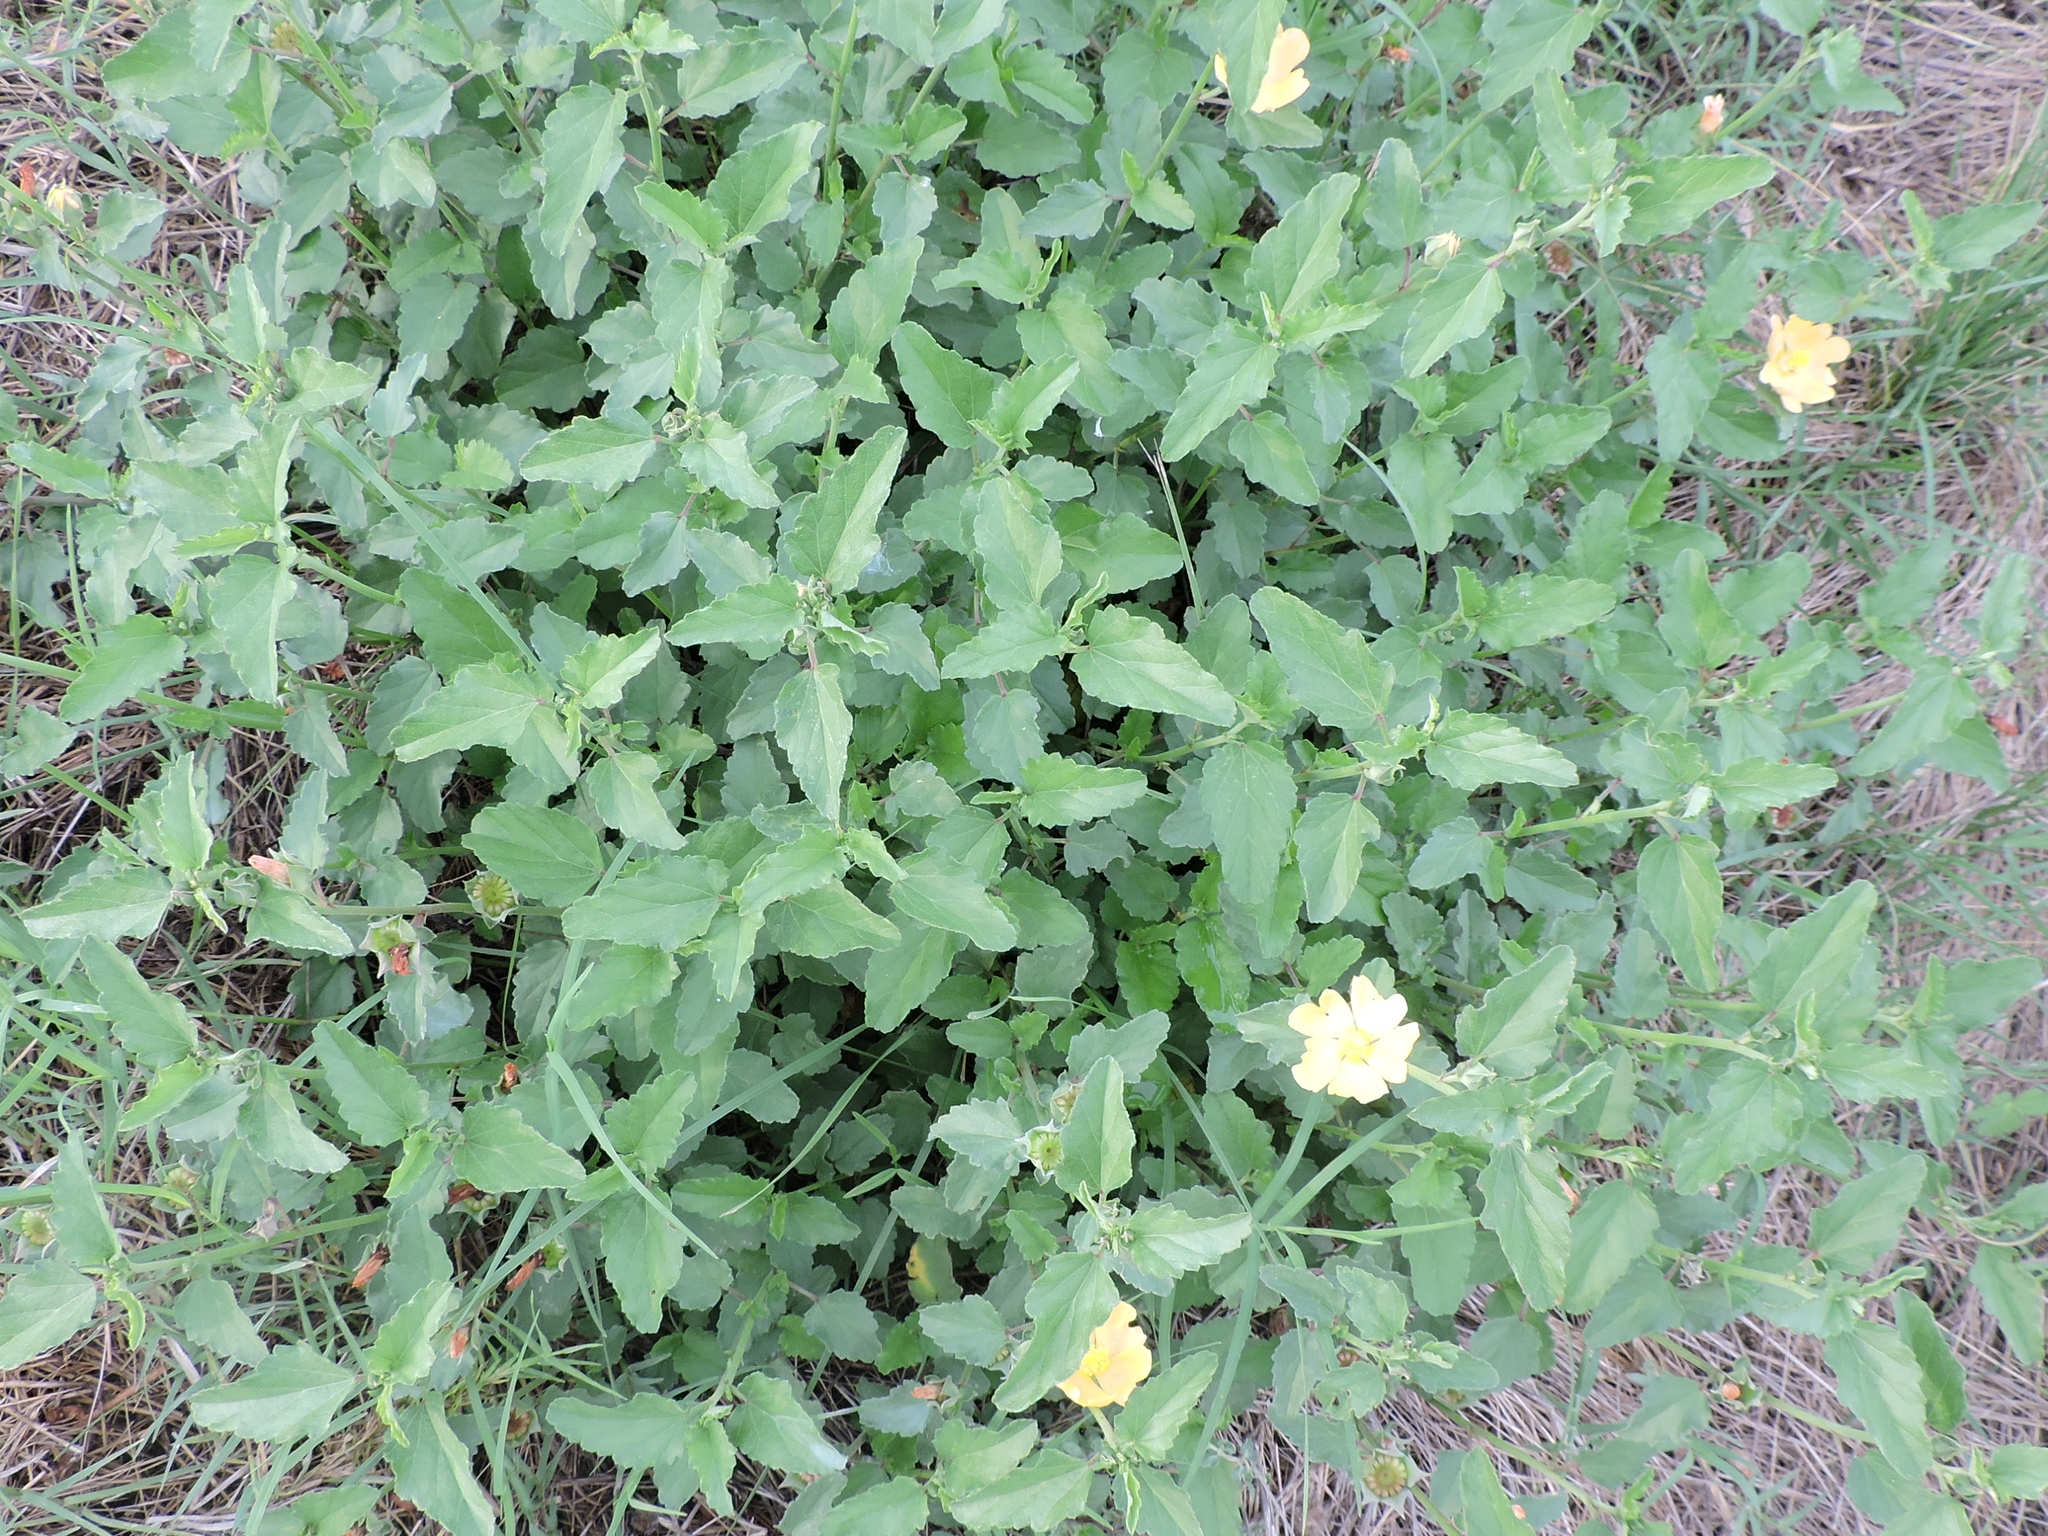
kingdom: Plantae
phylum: Tracheophyta
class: Magnoliopsida
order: Malvales
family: Malvaceae
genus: Malvastrum
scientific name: Malvastrum aurantiacum
